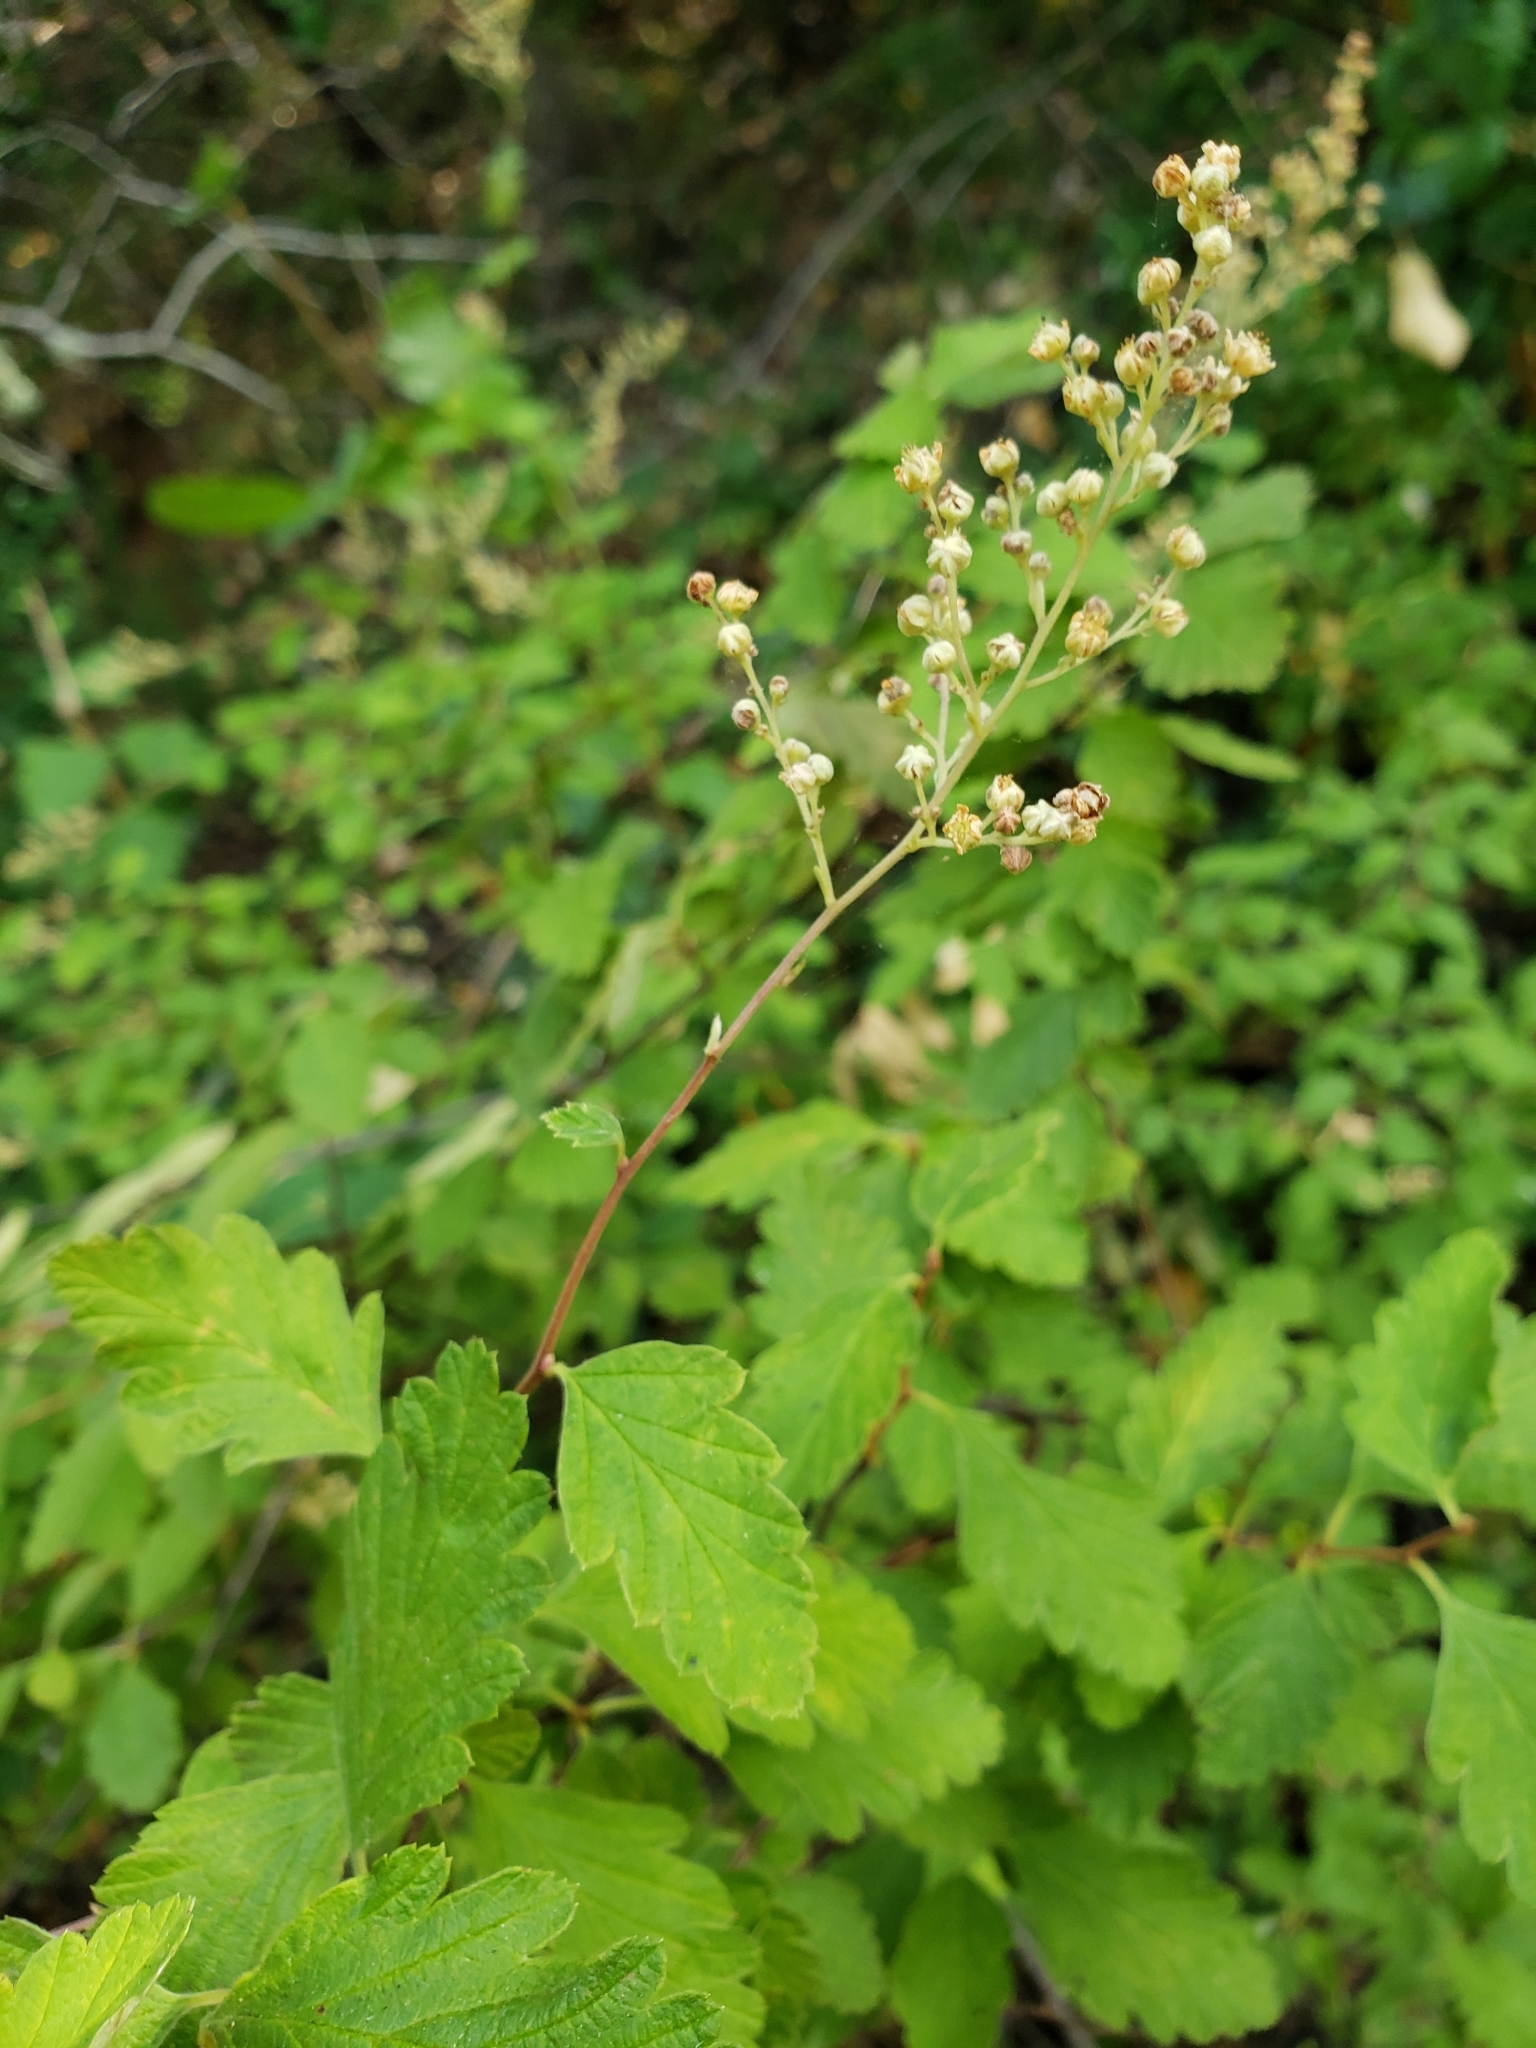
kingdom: Plantae
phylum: Tracheophyta
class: Magnoliopsida
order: Rosales
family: Rosaceae
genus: Holodiscus
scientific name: Holodiscus discolor
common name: Oceanspray
